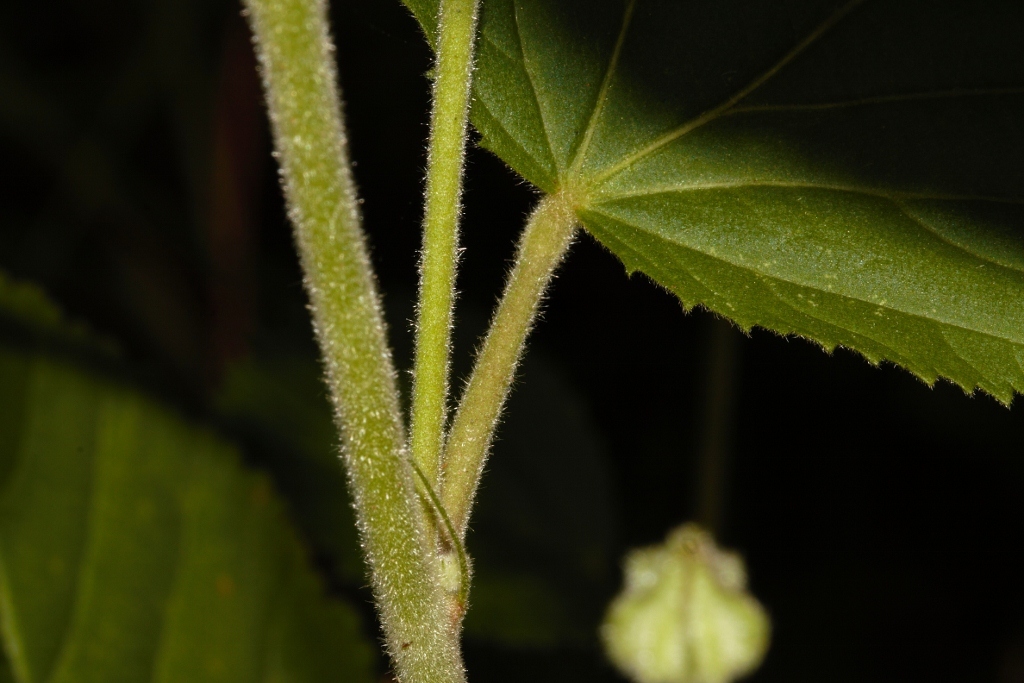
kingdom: Plantae
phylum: Tracheophyta
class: Magnoliopsida
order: Malvales
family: Malvaceae
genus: Sida
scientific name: Sida cordifolia
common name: Ilima
